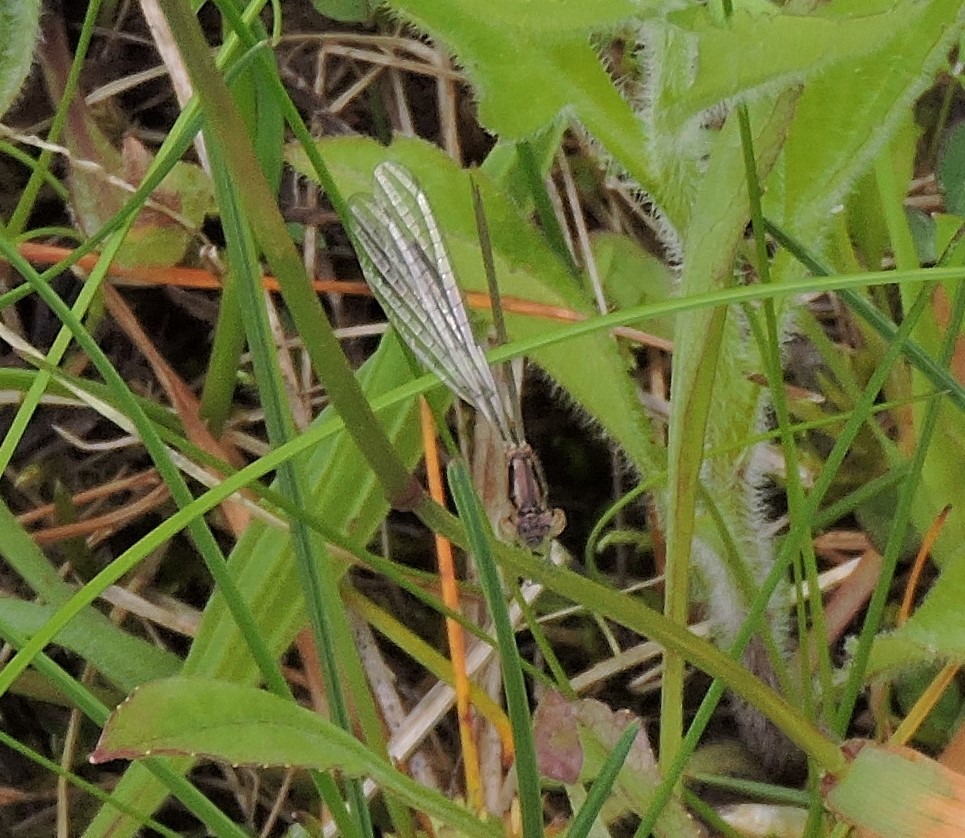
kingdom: Animalia
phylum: Arthropoda
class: Insecta
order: Odonata
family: Coenagrionidae
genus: Ischnura
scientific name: Ischnura posita
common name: Fragile forktail
